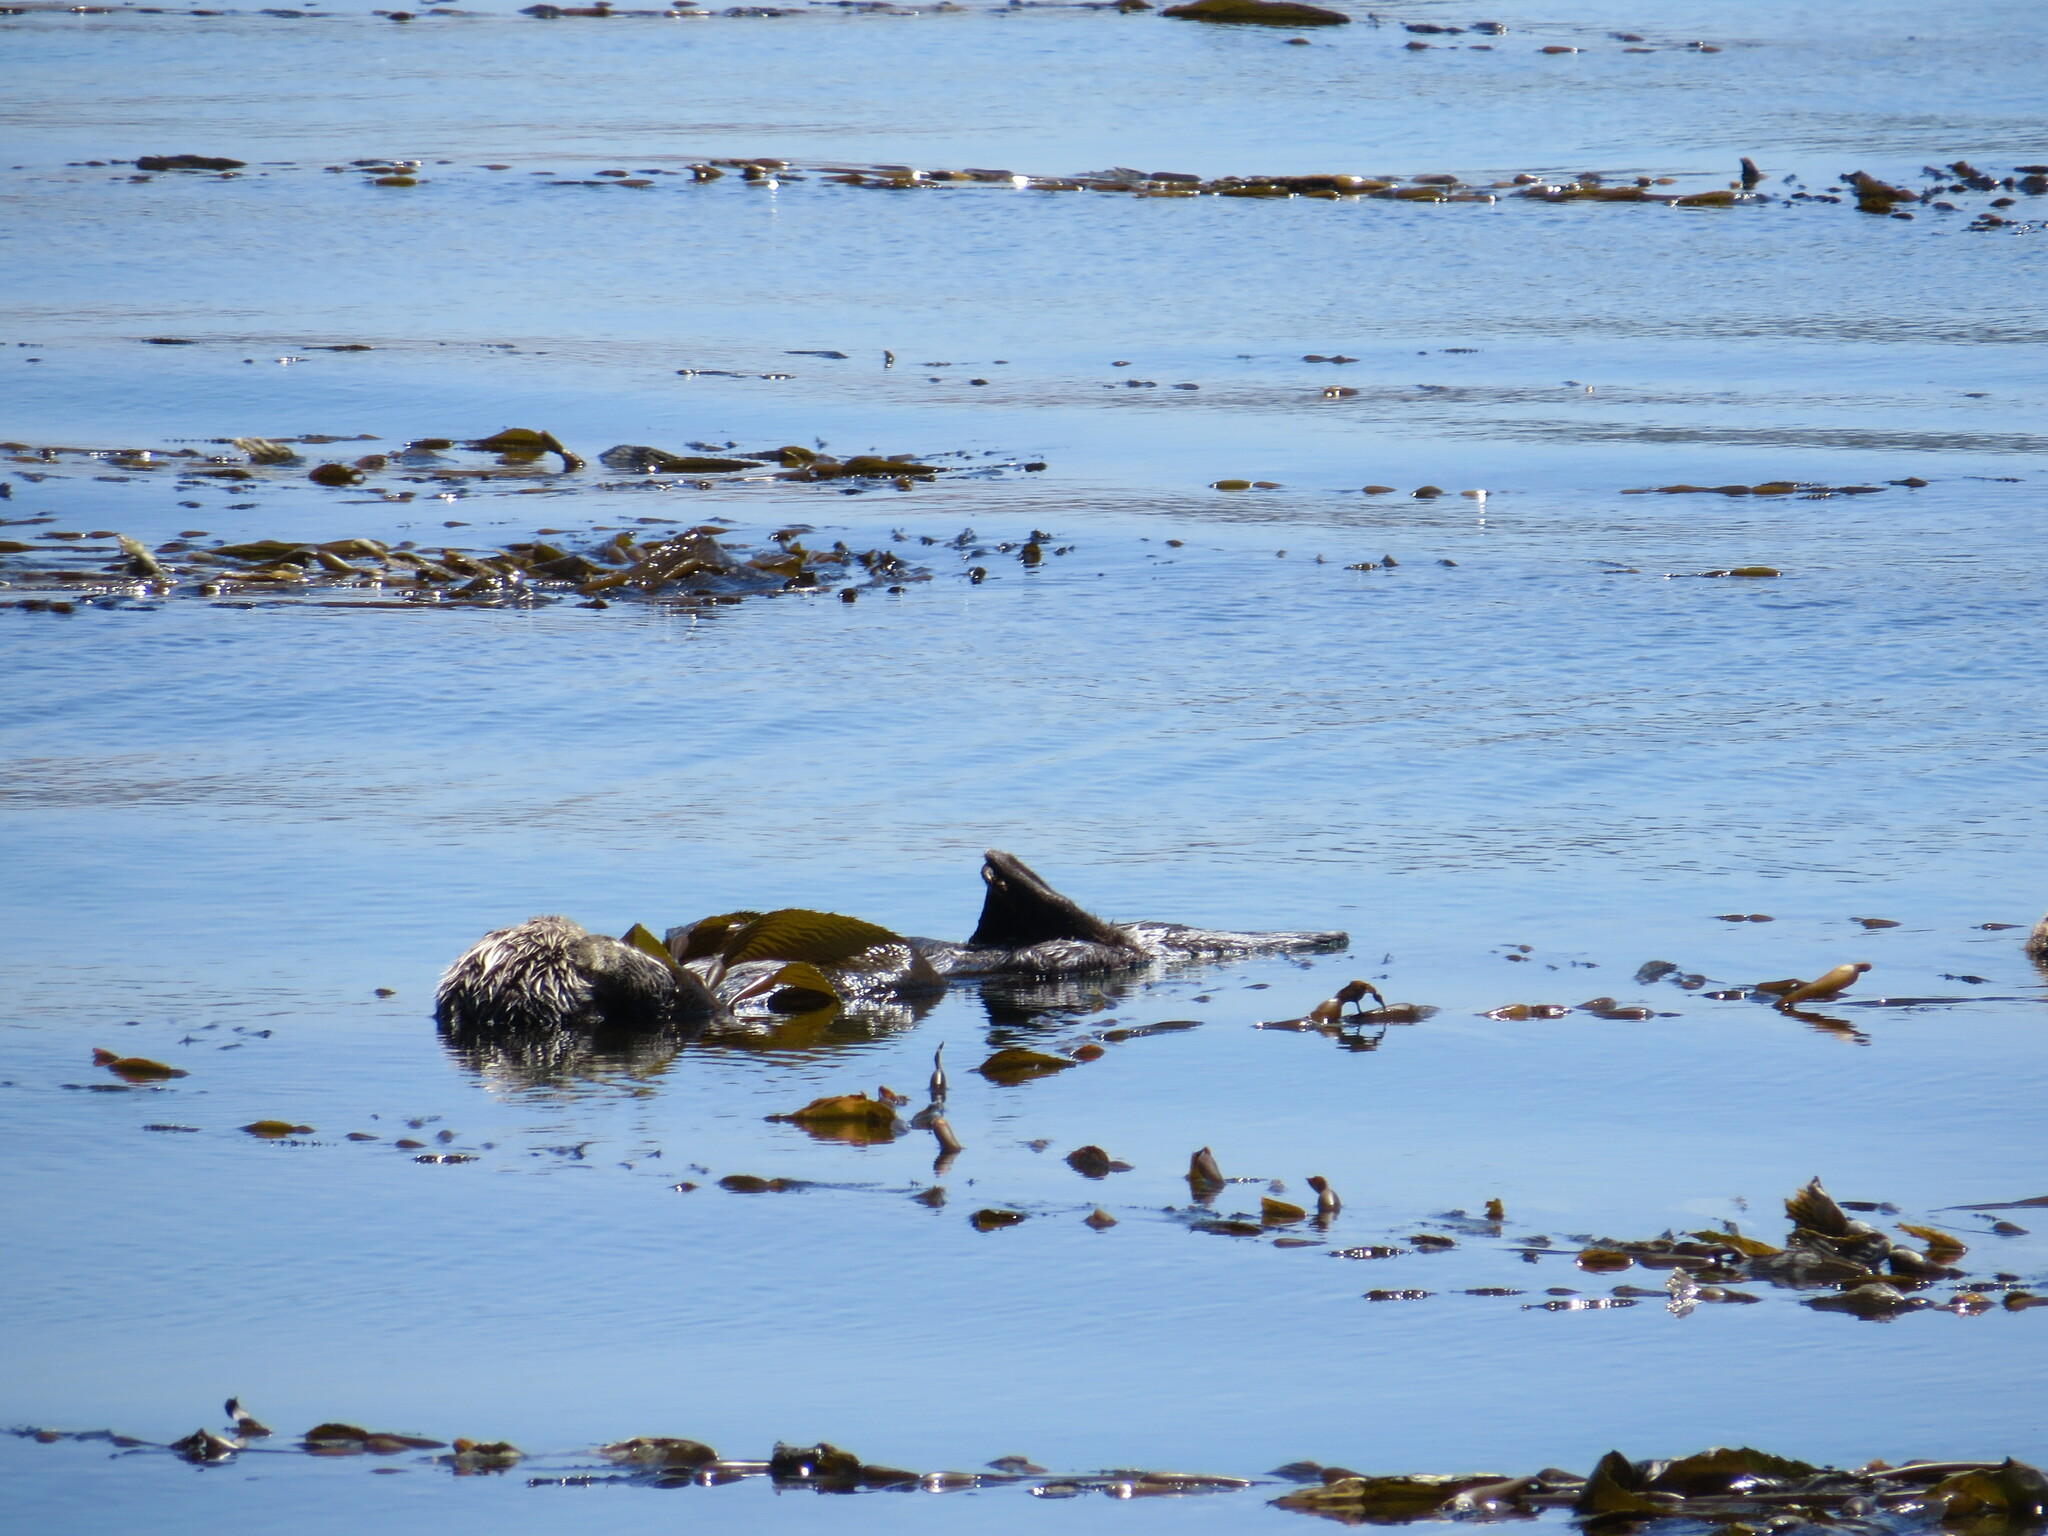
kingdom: Animalia
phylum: Chordata
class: Mammalia
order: Carnivora
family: Mustelidae
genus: Enhydra
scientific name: Enhydra lutris
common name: Sea otter
